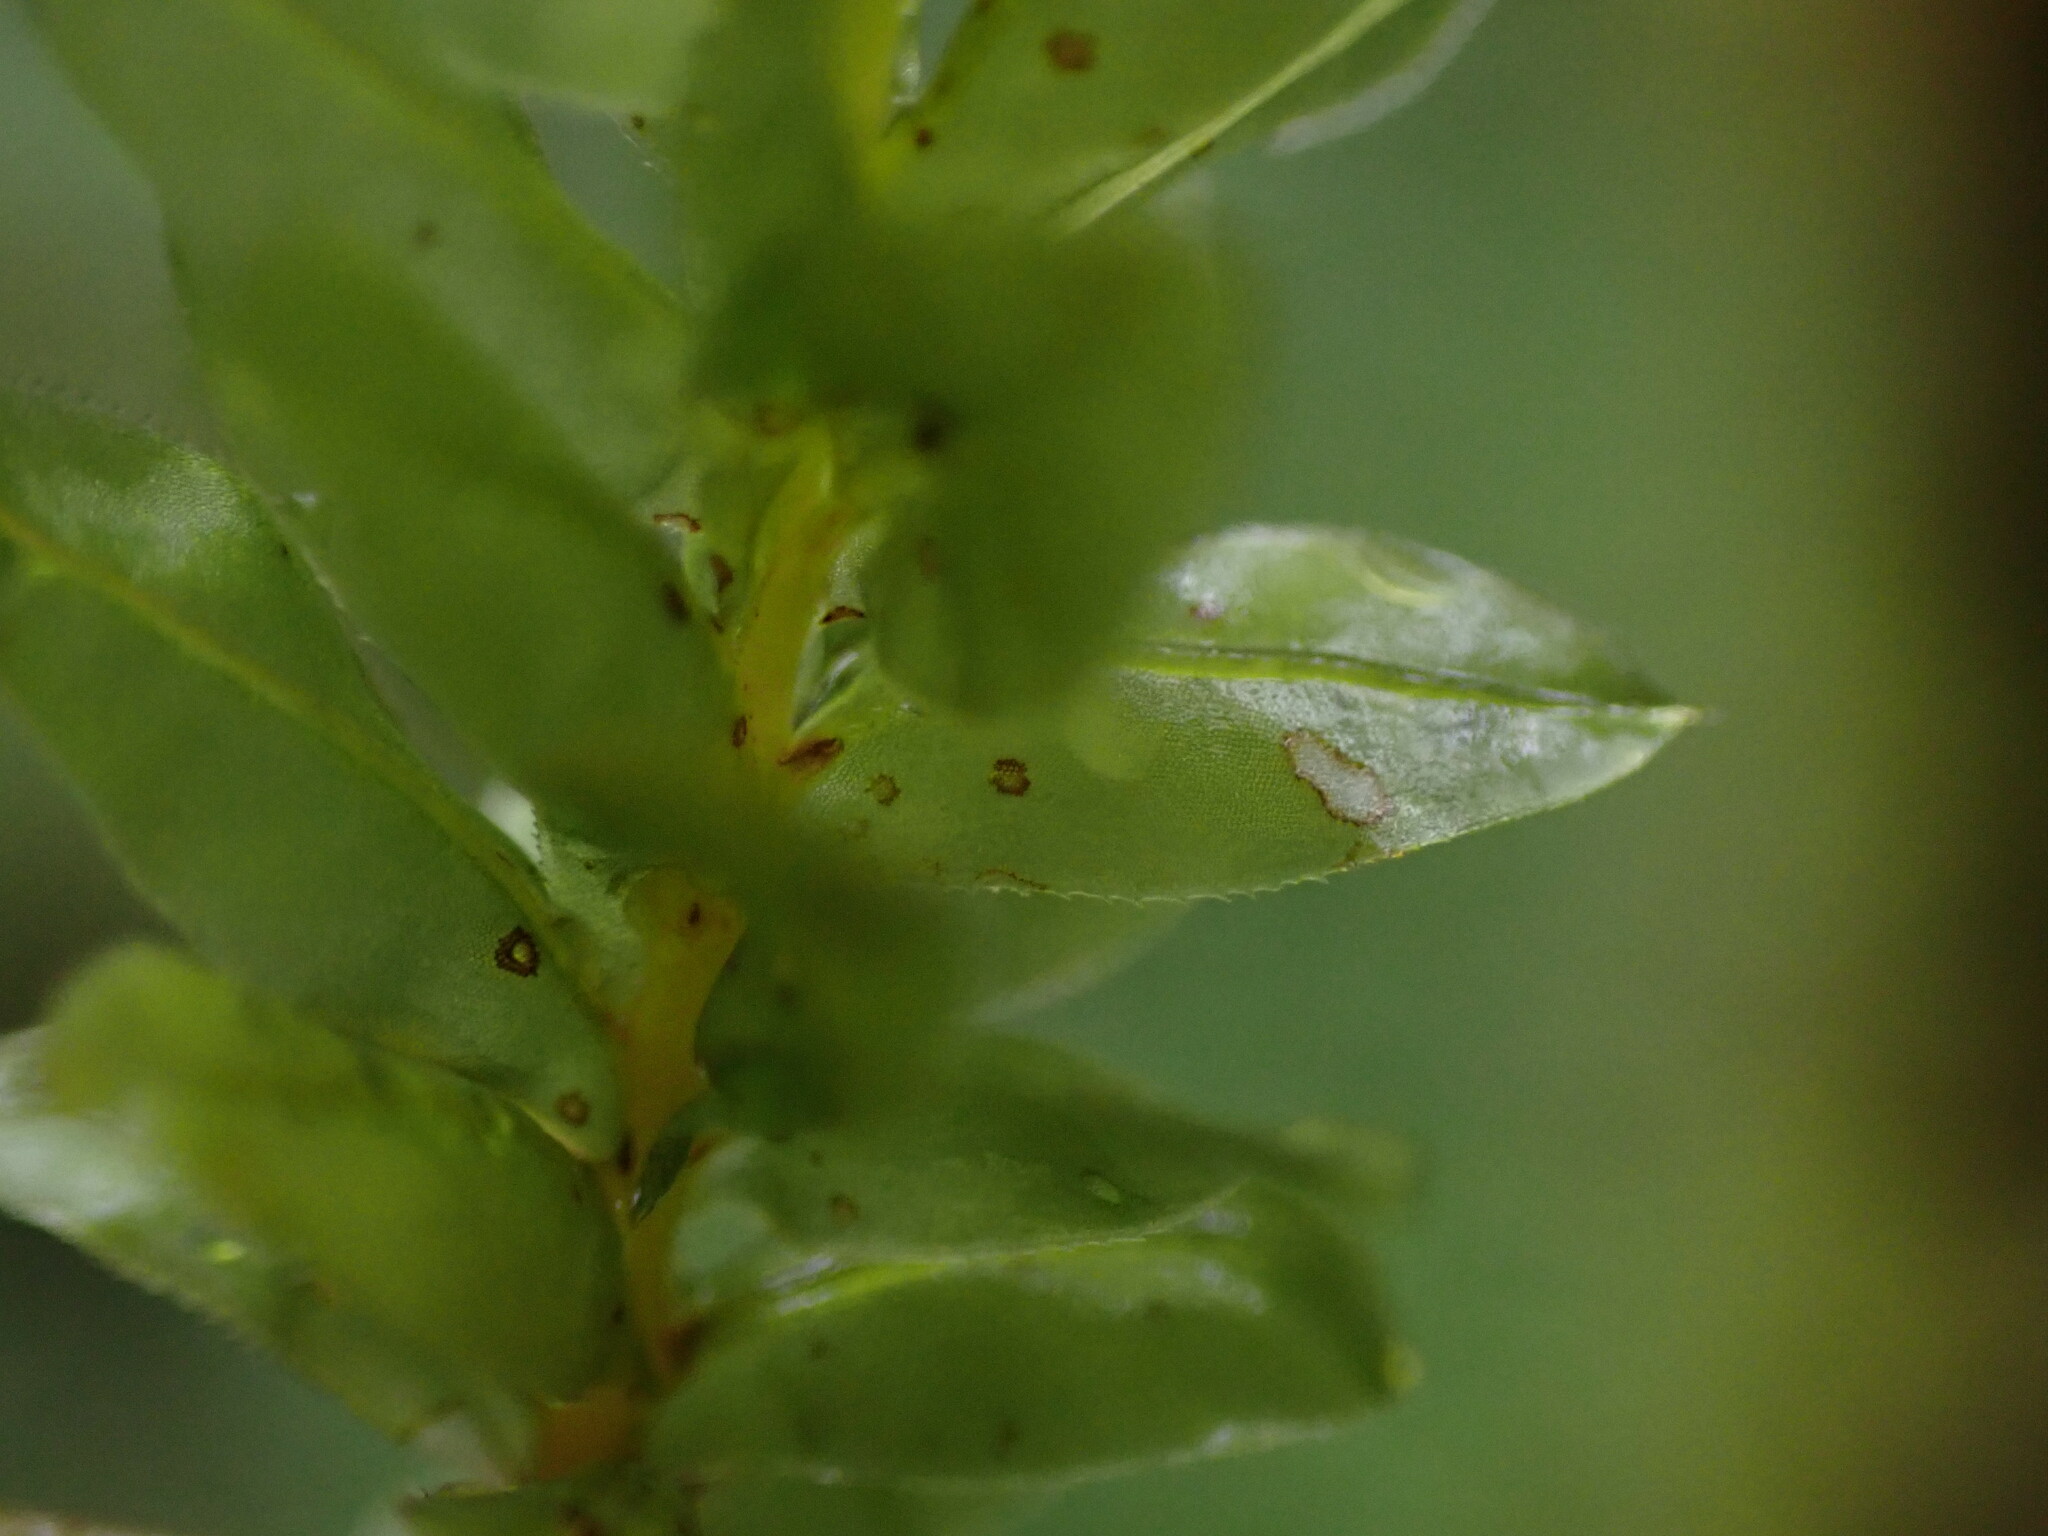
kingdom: Plantae
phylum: Bryophyta
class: Bryopsida
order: Bryales
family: Mniaceae
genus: Plagiomnium
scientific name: Plagiomnium venustum
